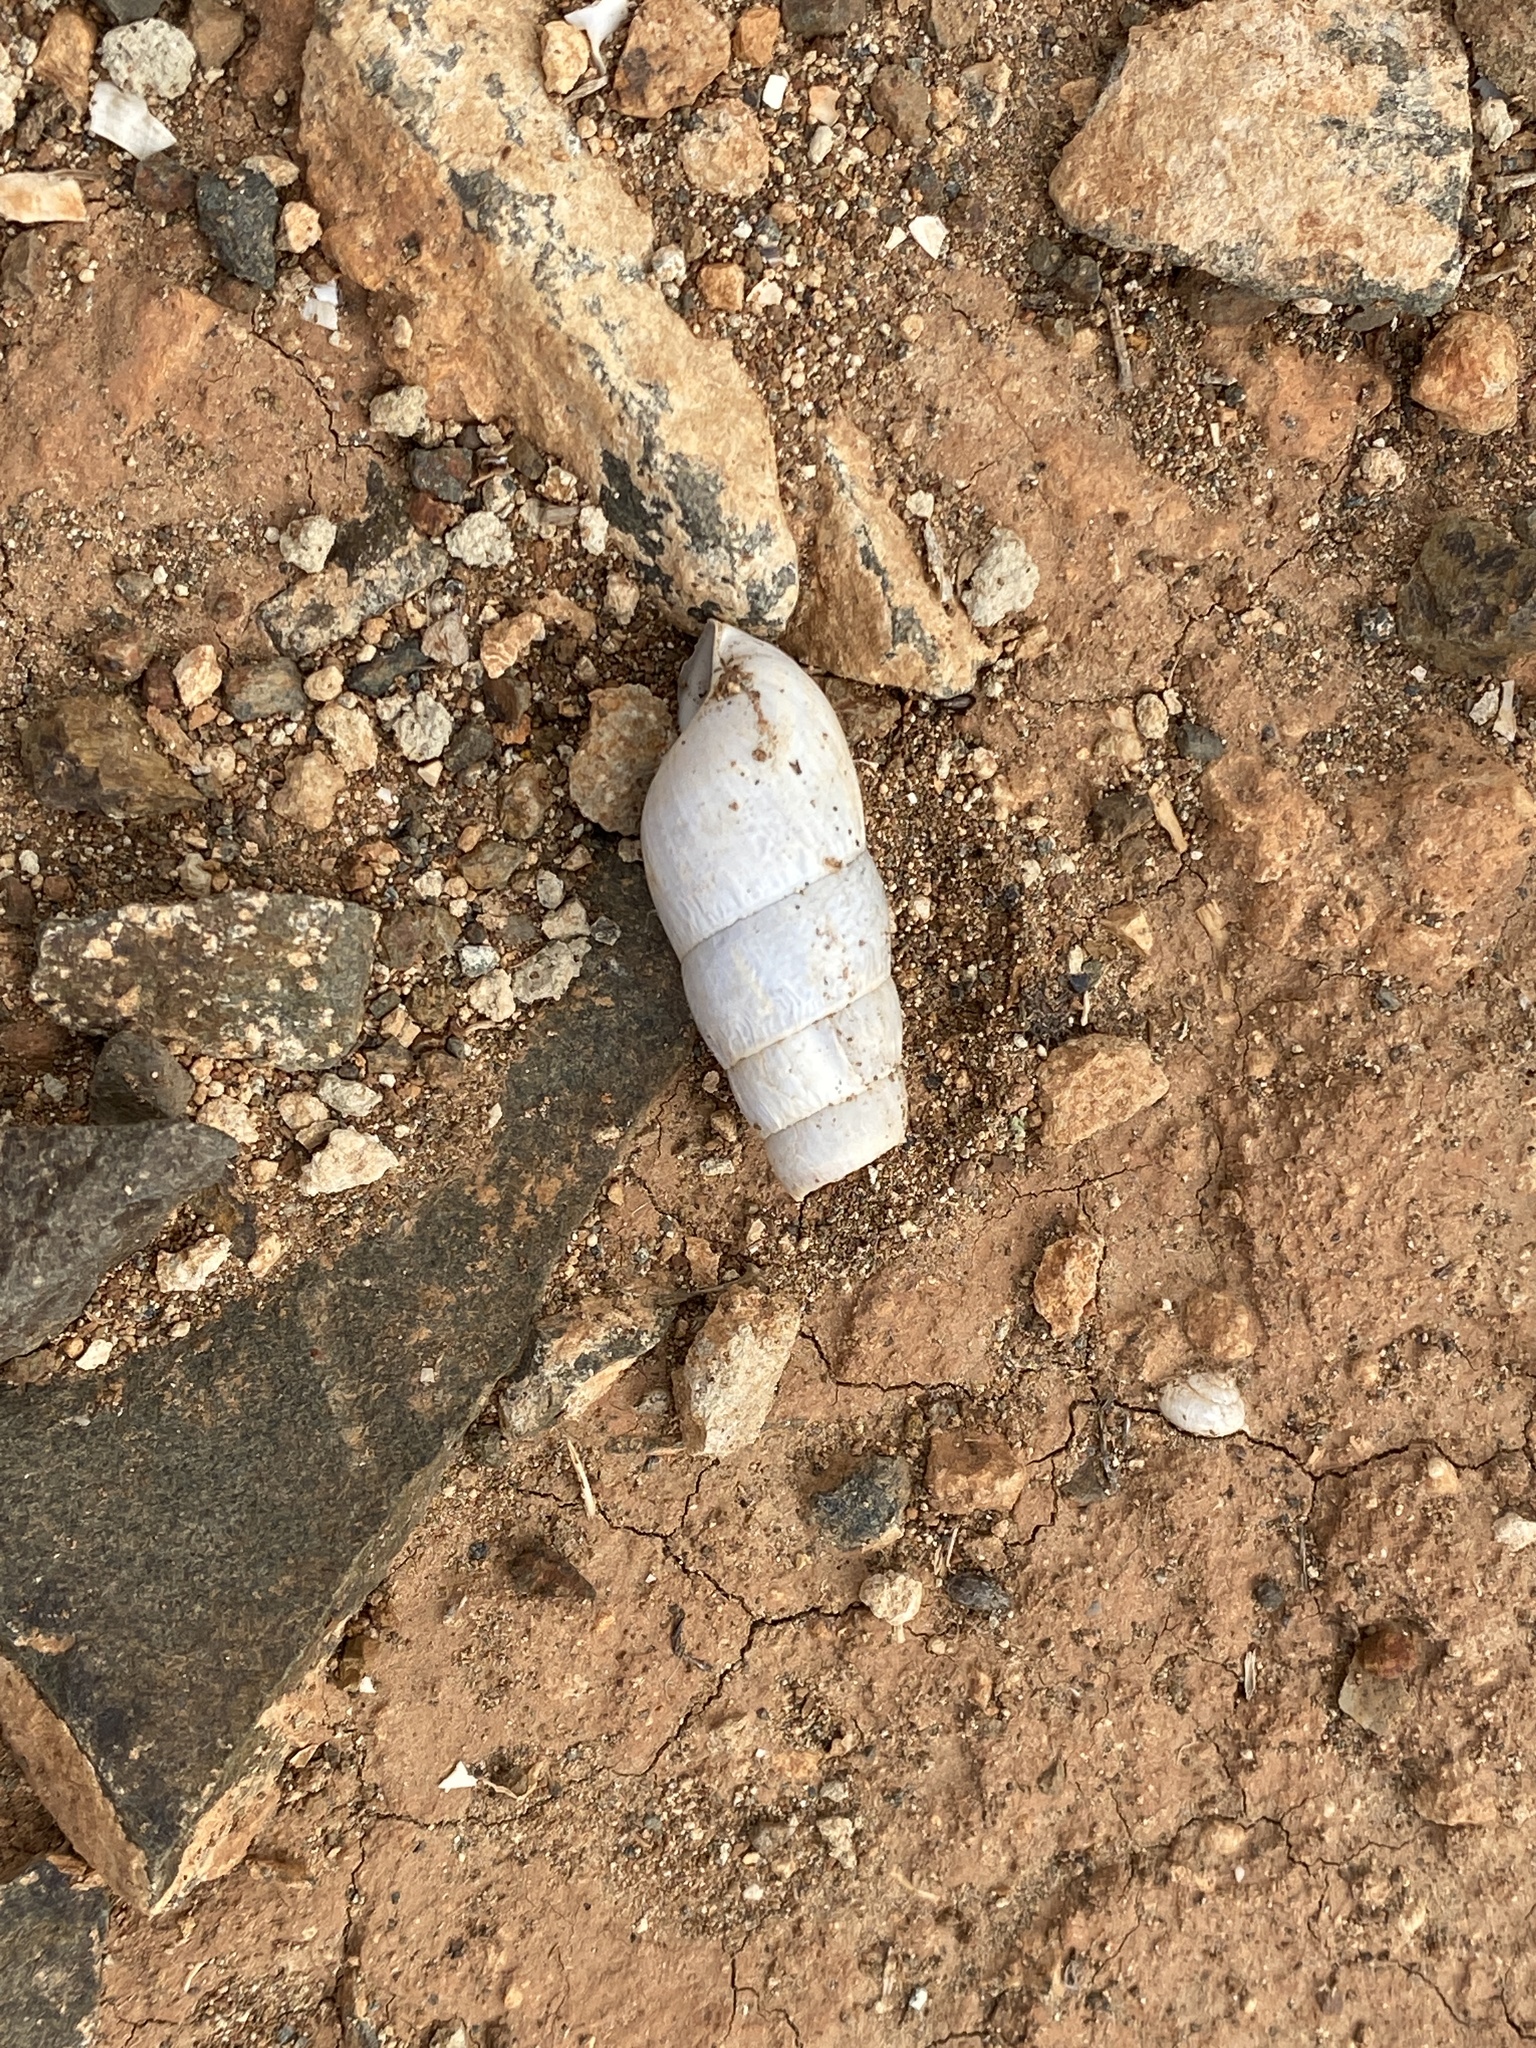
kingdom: Animalia
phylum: Mollusca
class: Gastropoda
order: Stylommatophora
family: Achatinidae
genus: Rumina
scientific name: Rumina decollata
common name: Decollate snail
